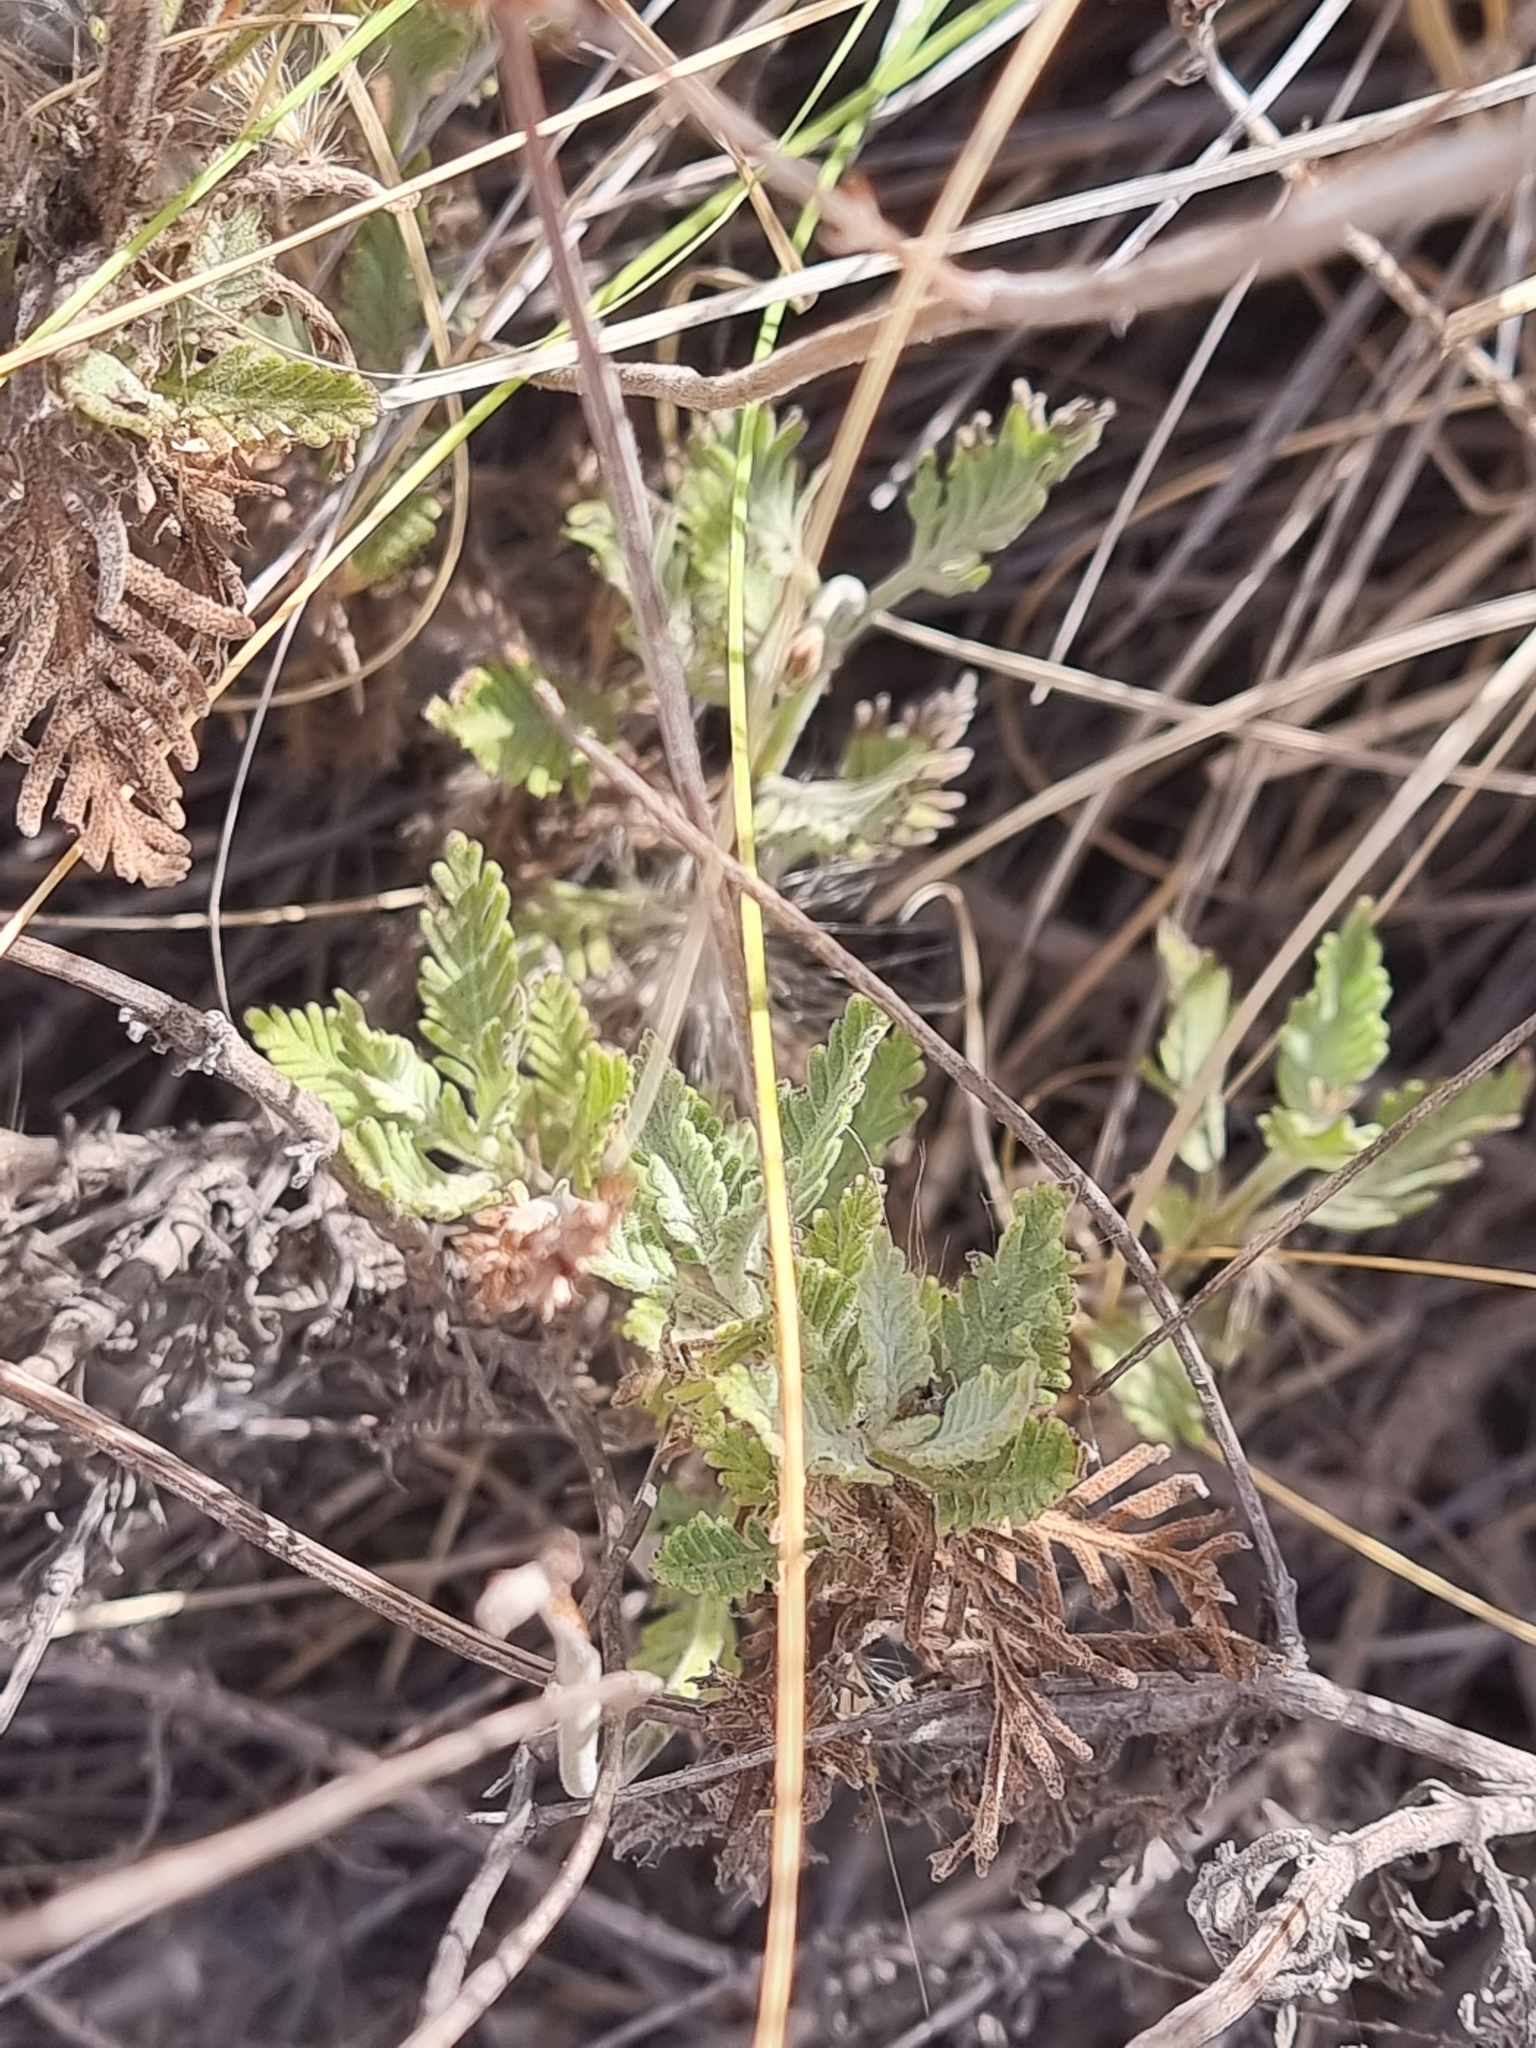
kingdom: Plantae
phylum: Tracheophyta
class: Magnoliopsida
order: Lamiales
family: Lamiaceae
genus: Lavandula
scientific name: Lavandula minutolii
